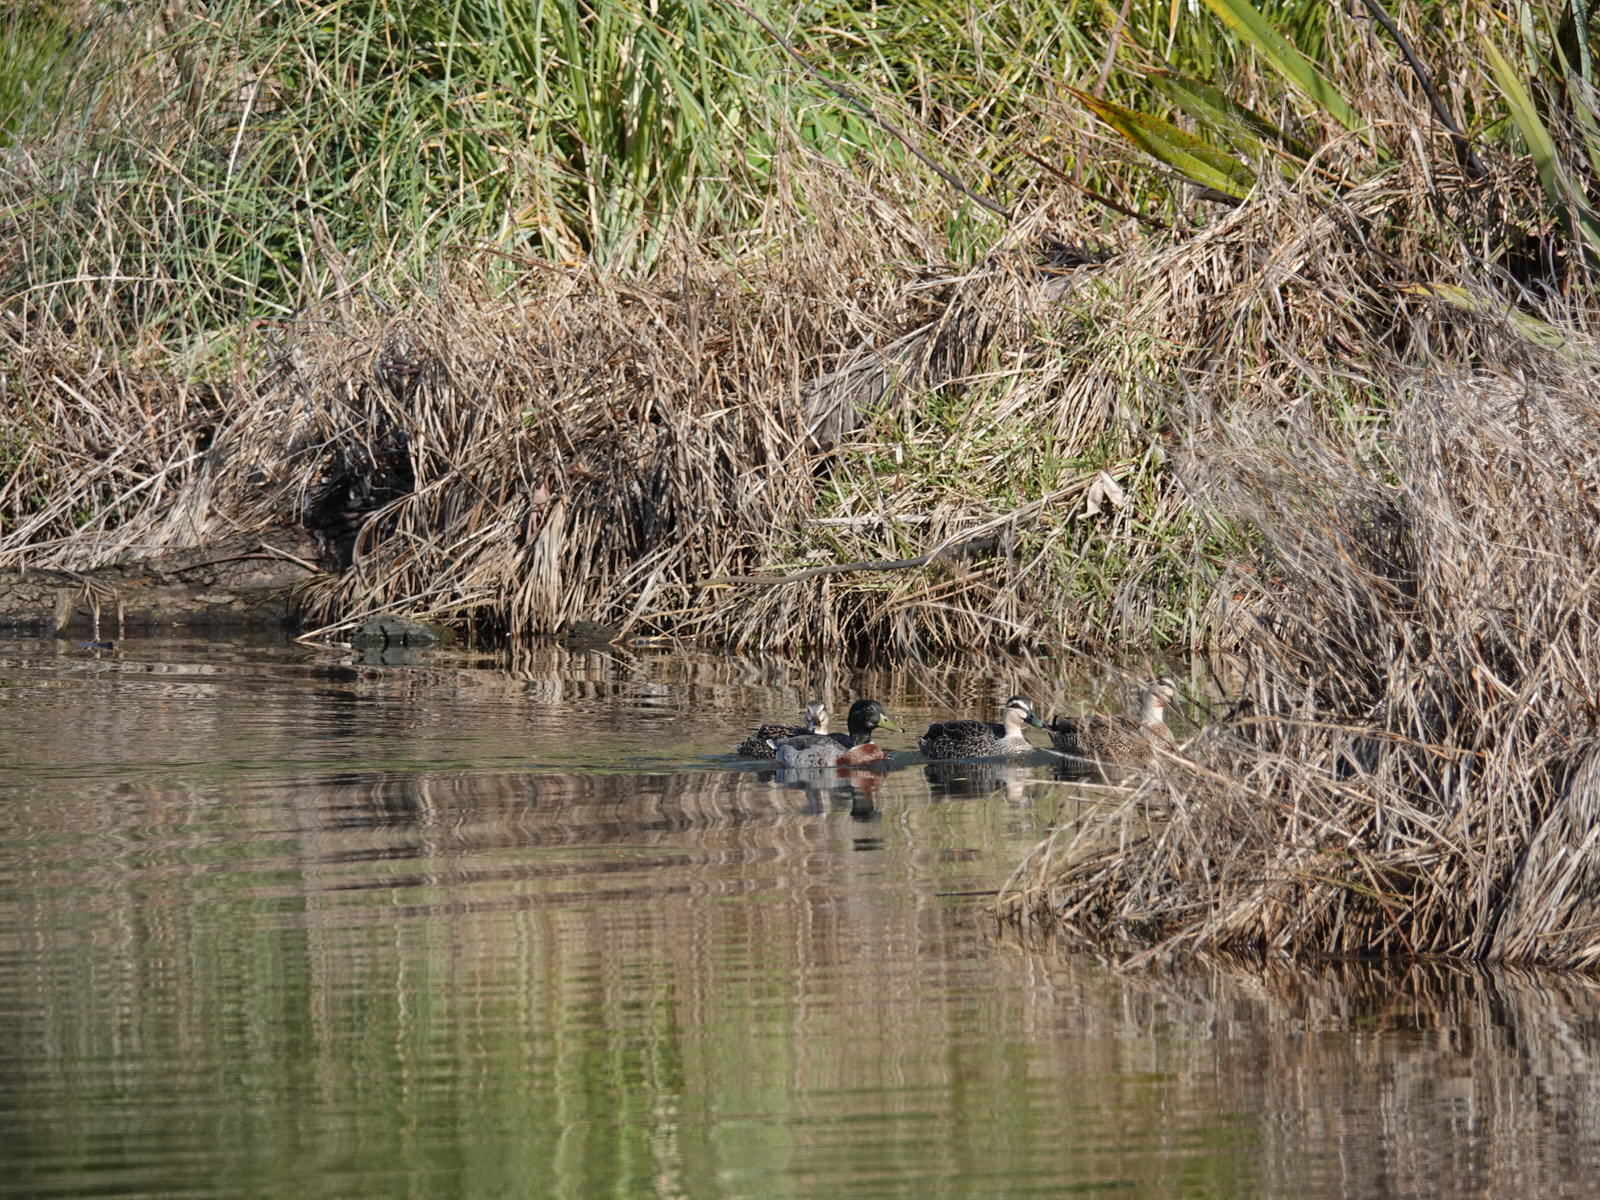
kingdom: Animalia
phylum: Chordata
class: Aves
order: Anseriformes
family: Anatidae
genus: Anas
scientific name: Anas
